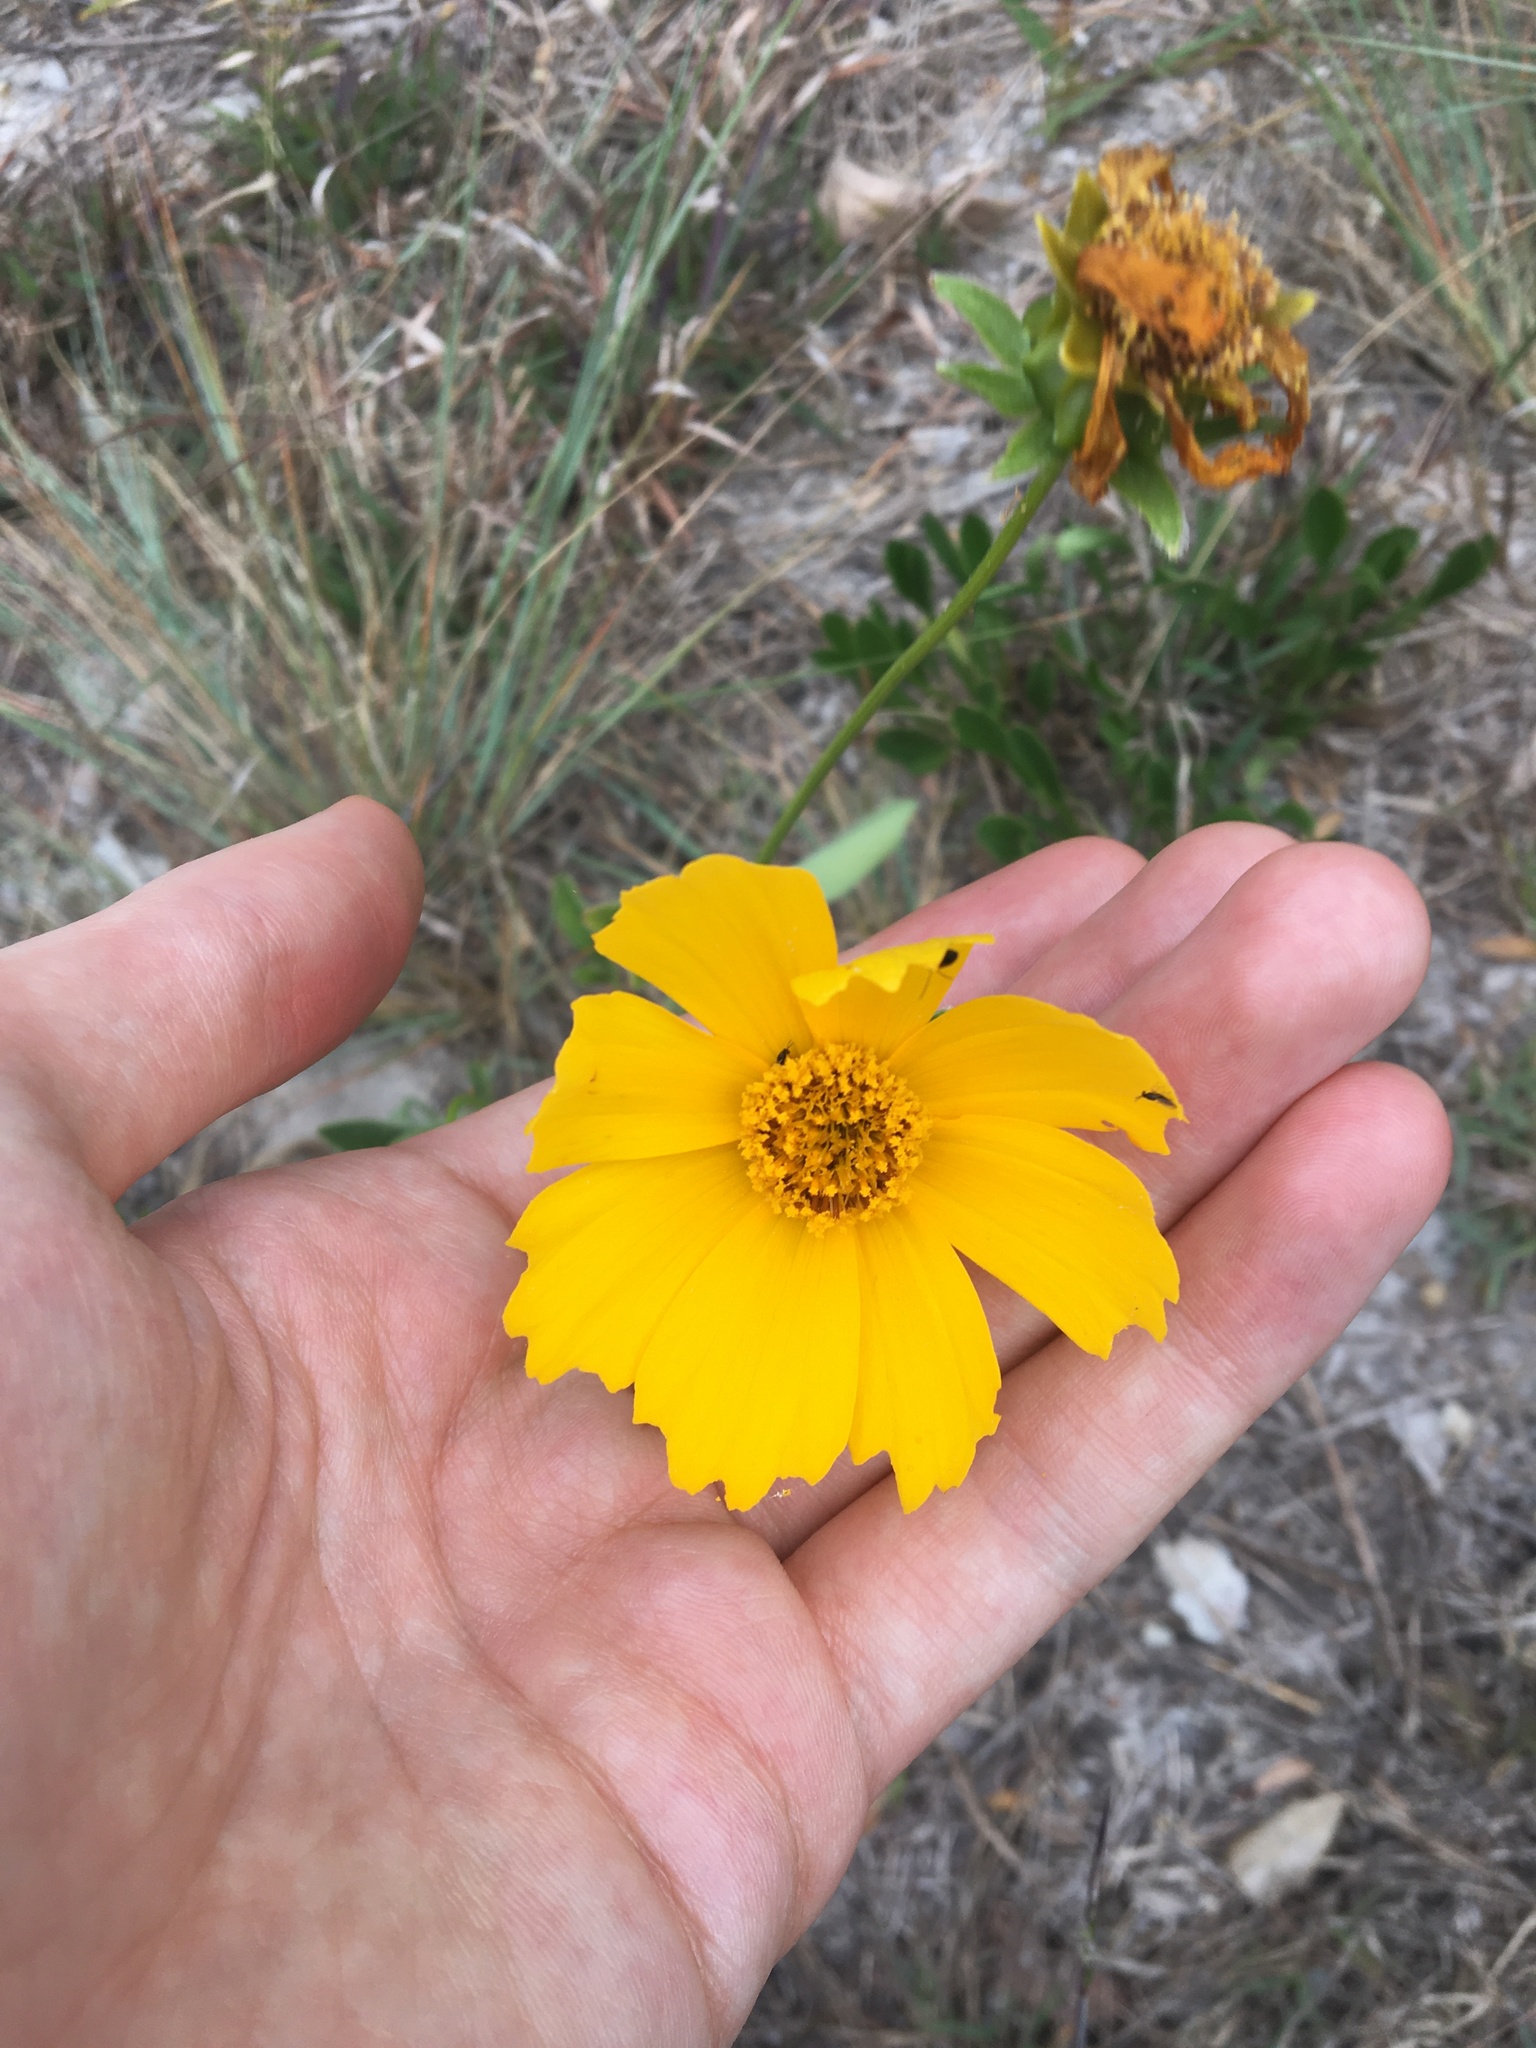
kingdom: Plantae
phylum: Tracheophyta
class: Magnoliopsida
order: Asterales
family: Asteraceae
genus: Coreopsis
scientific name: Coreopsis lanceolata
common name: Garden coreopsis
